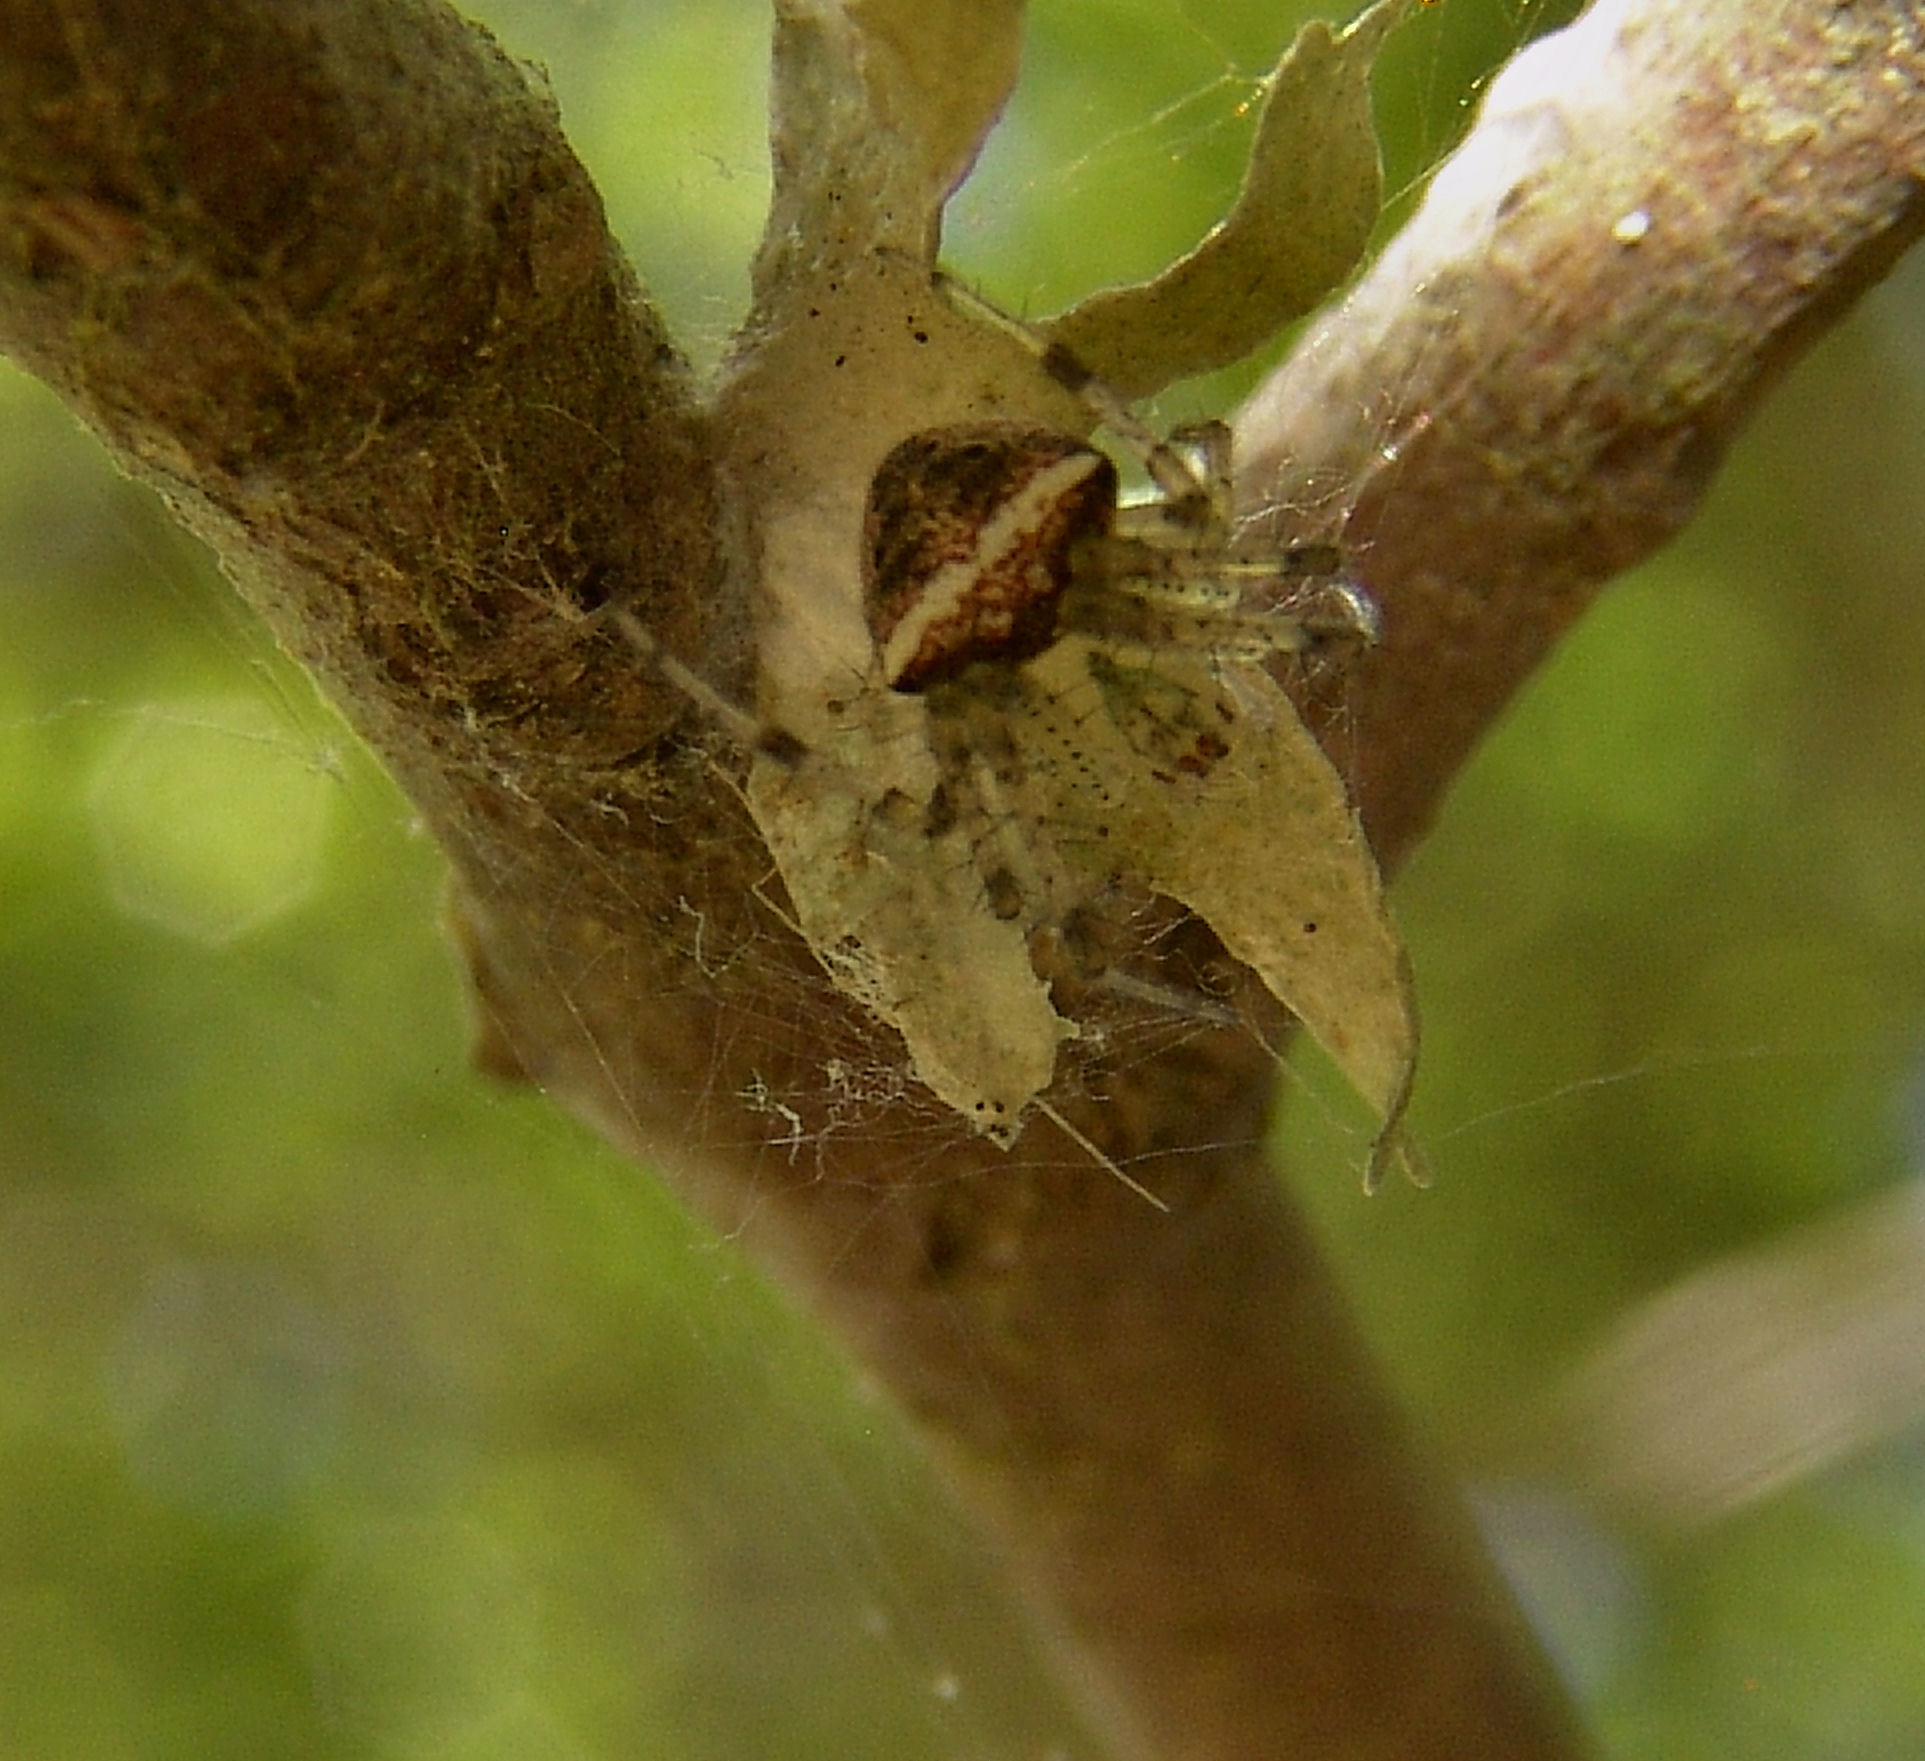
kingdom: Animalia
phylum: Arthropoda
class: Arachnida
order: Araneae
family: Araneidae
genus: Araneus
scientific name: Araneus miniatus
